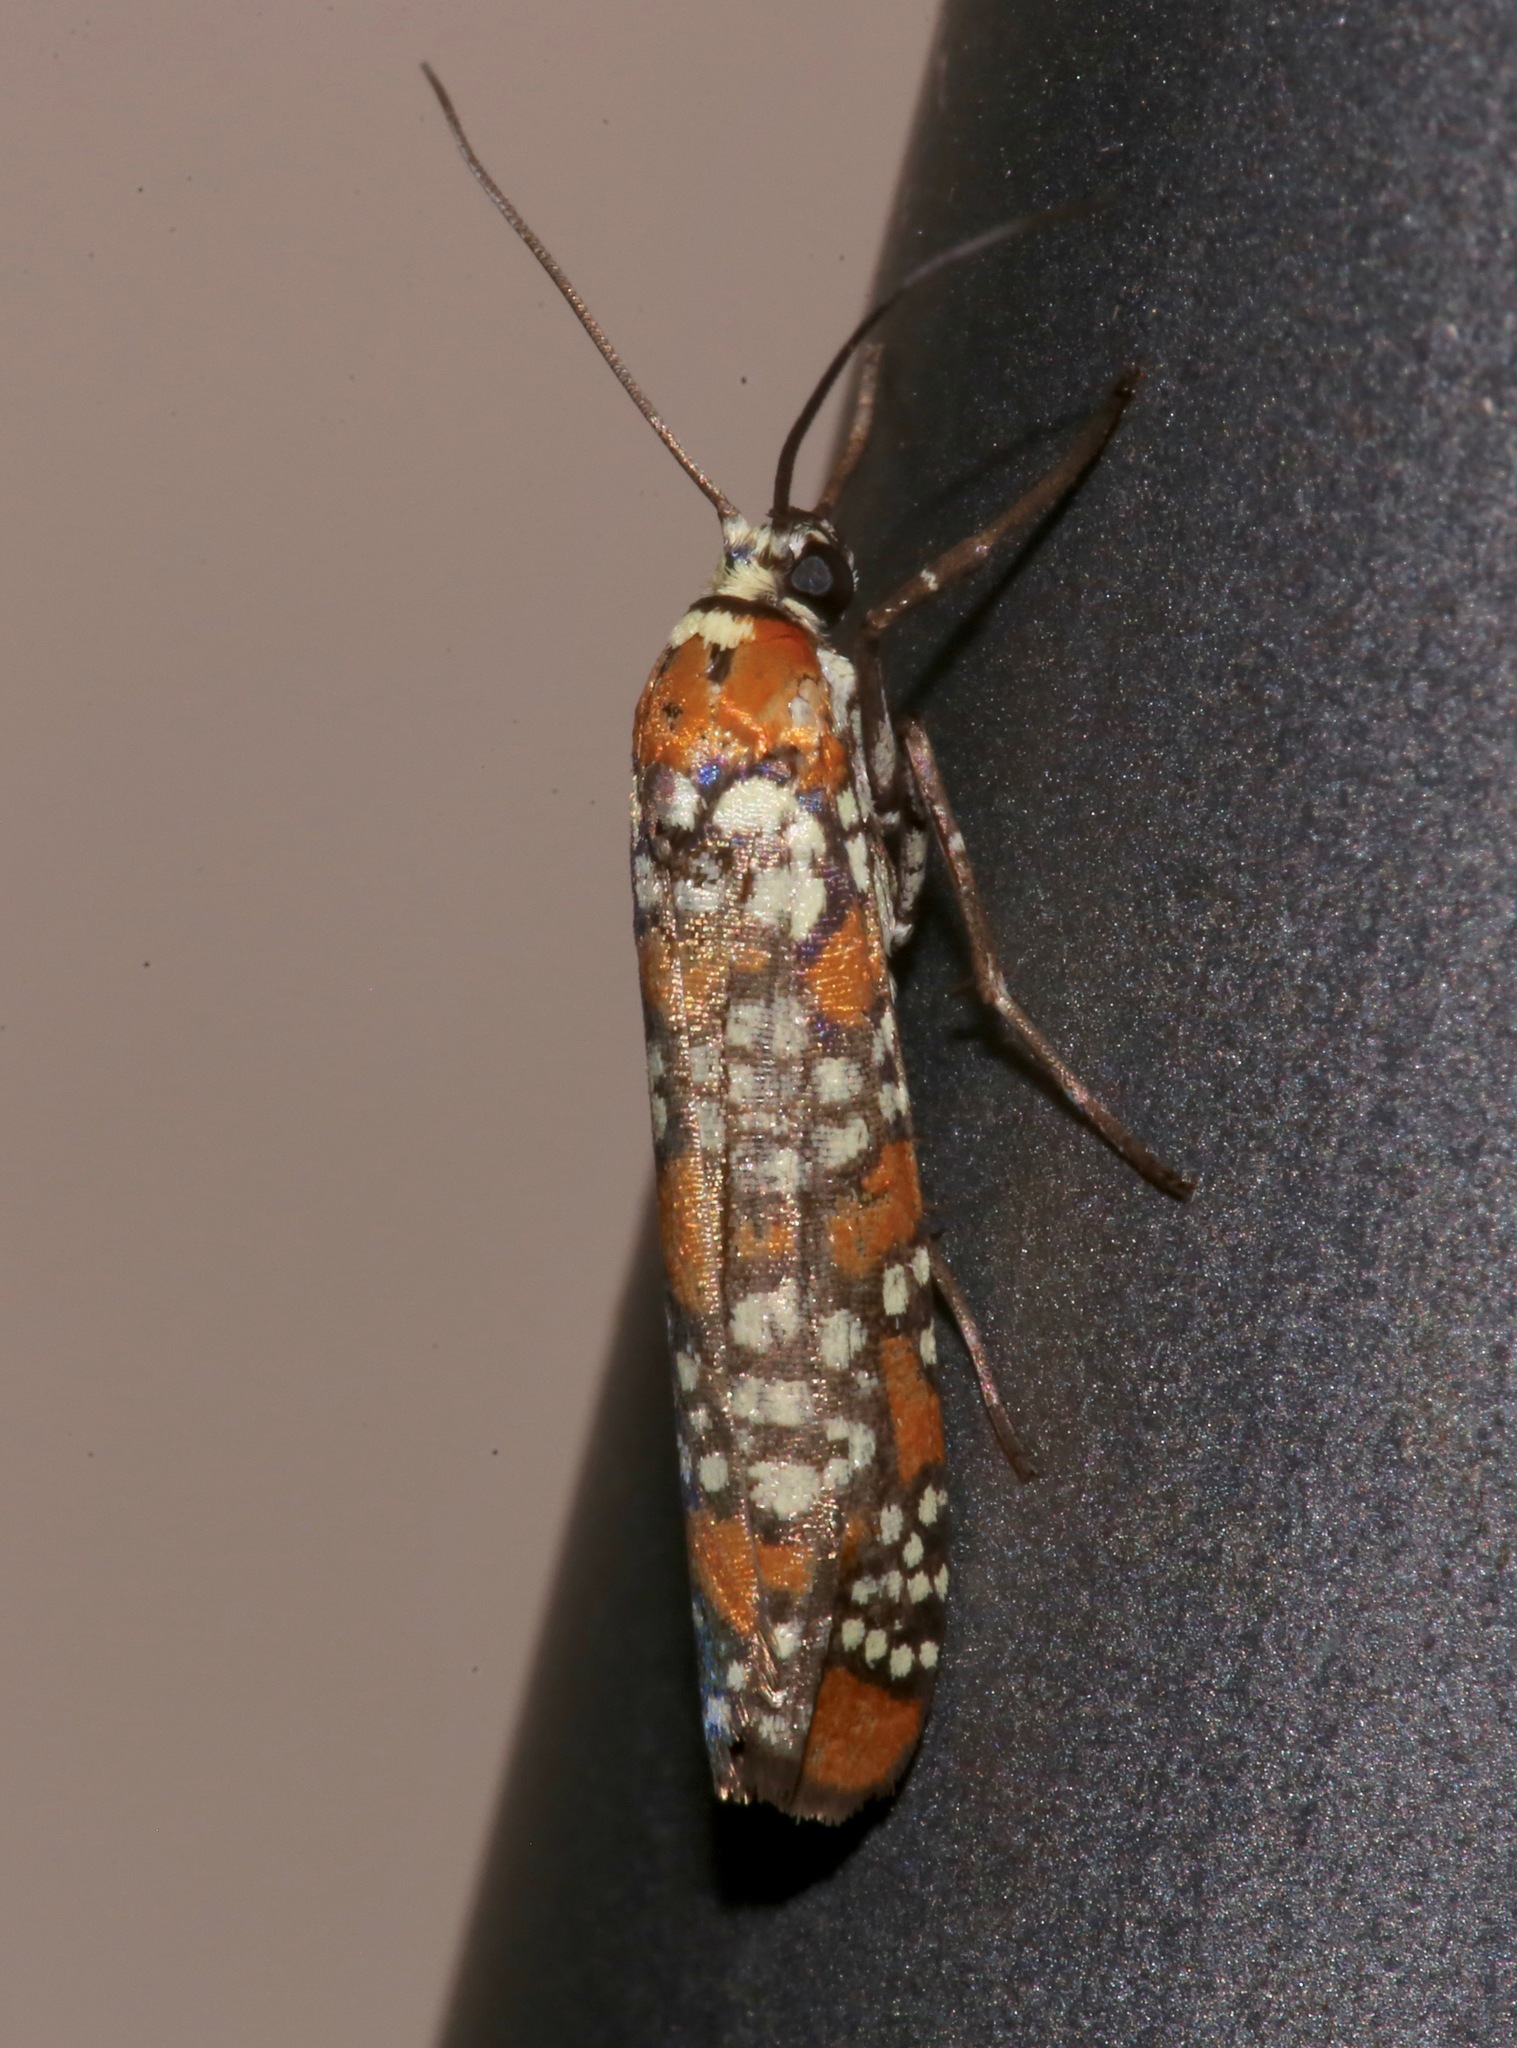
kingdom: Animalia
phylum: Arthropoda
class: Insecta
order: Lepidoptera
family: Attevidae
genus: Atteva
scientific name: Atteva punctella
